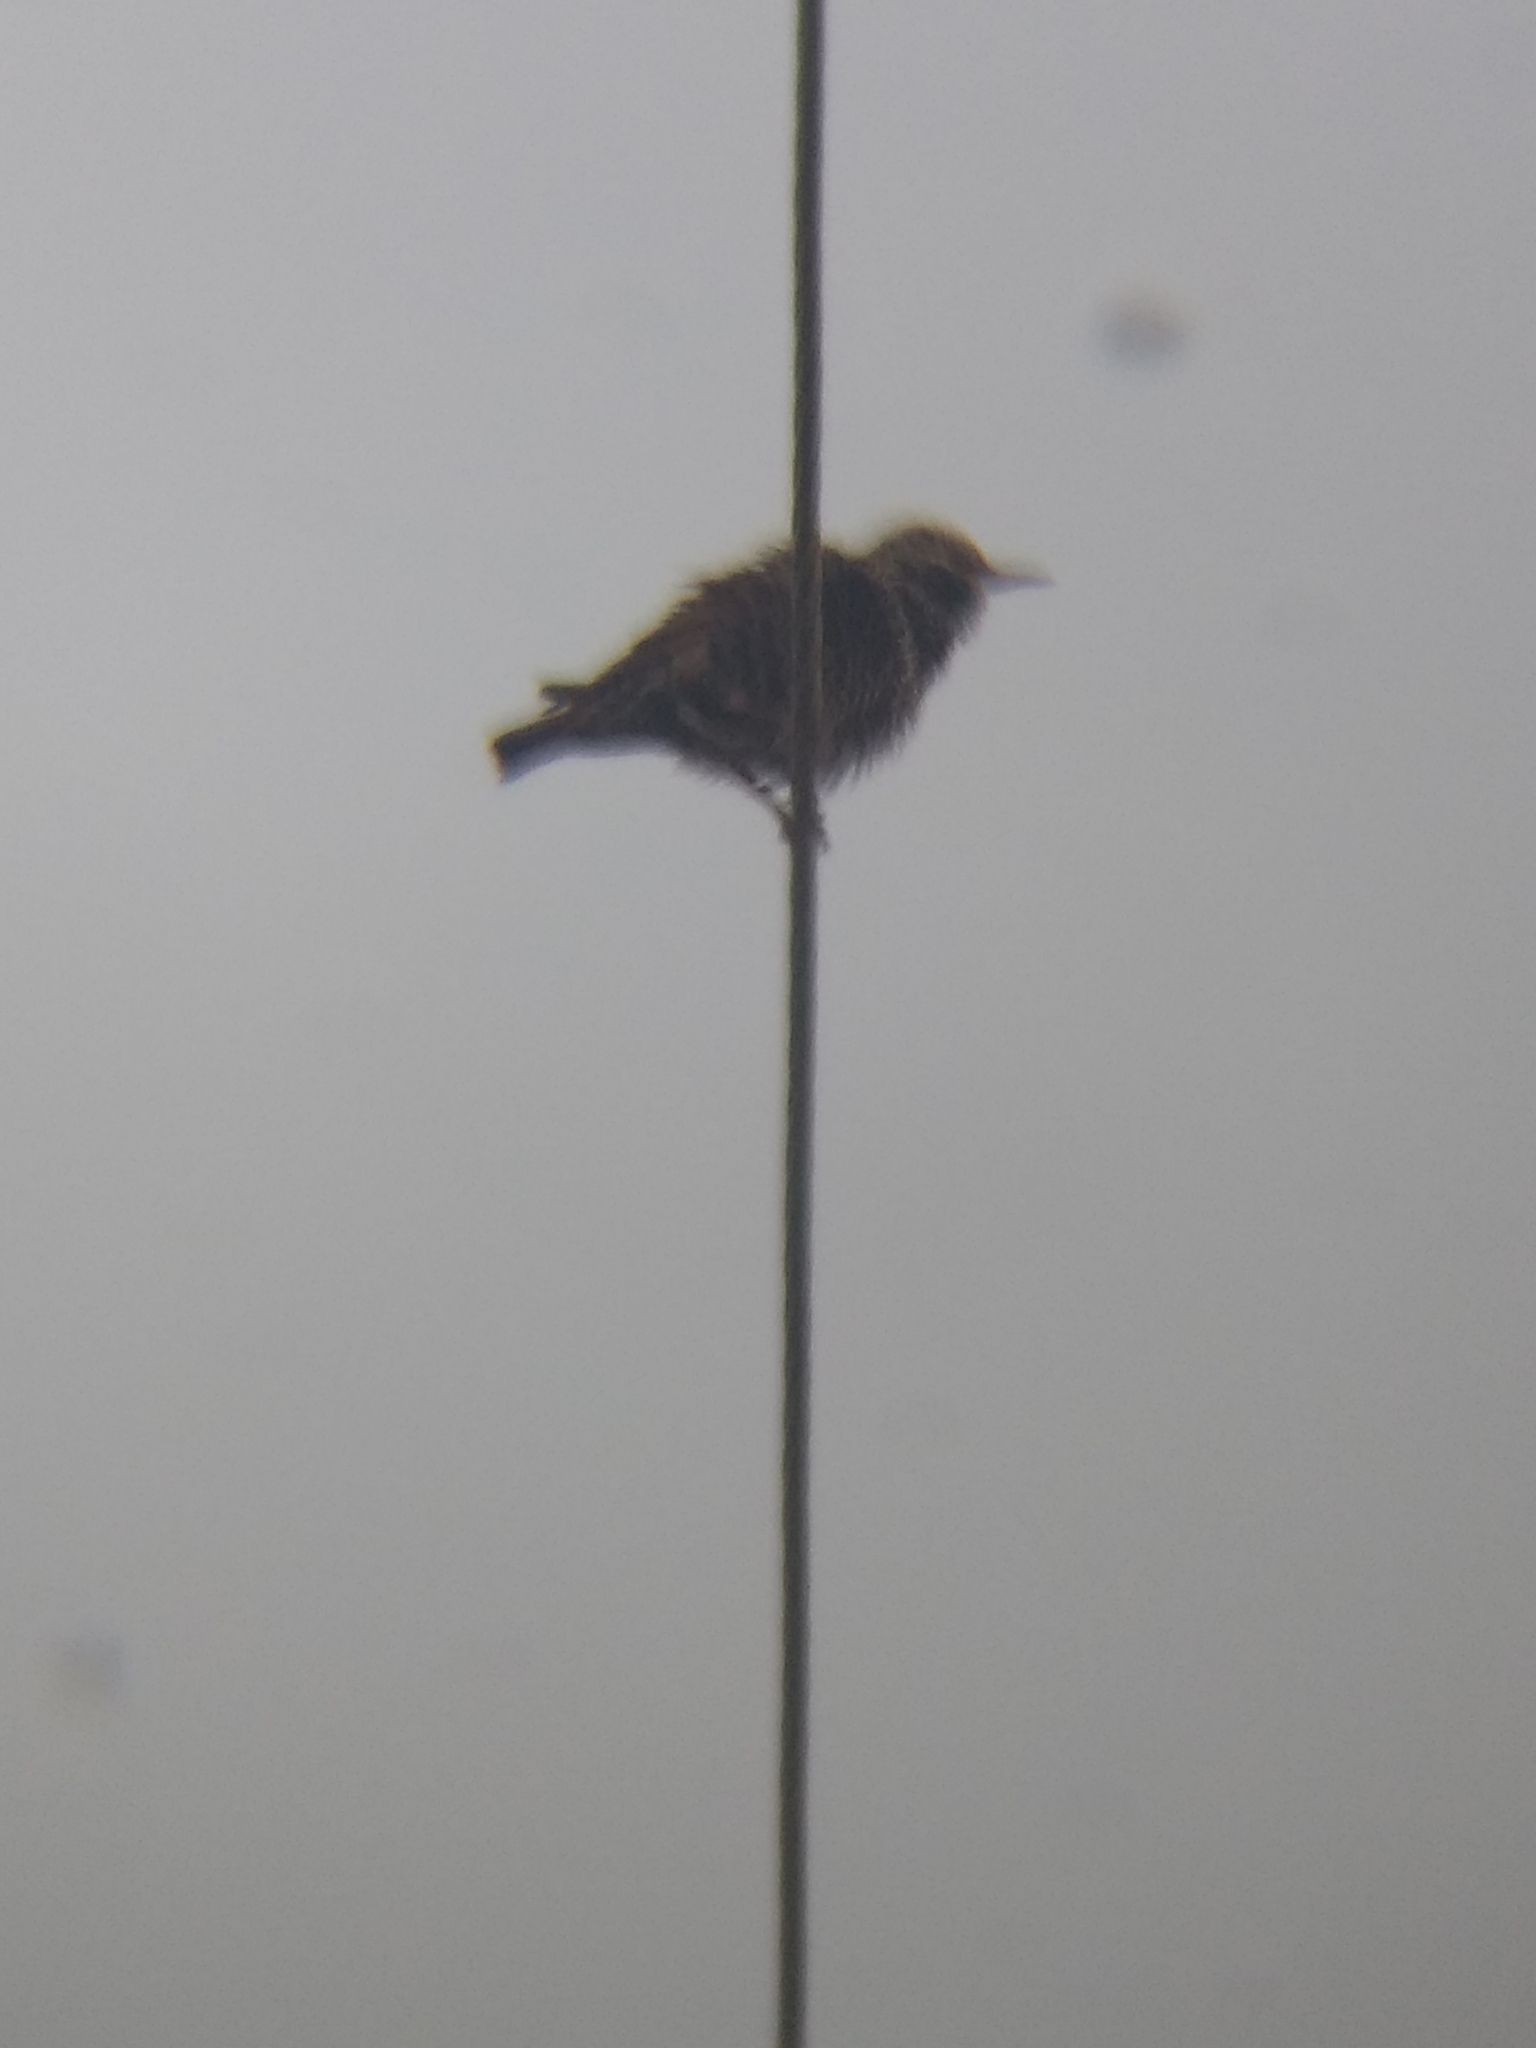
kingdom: Animalia
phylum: Chordata
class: Aves
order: Passeriformes
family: Sturnidae
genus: Sturnus
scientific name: Sturnus vulgaris
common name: Common starling
